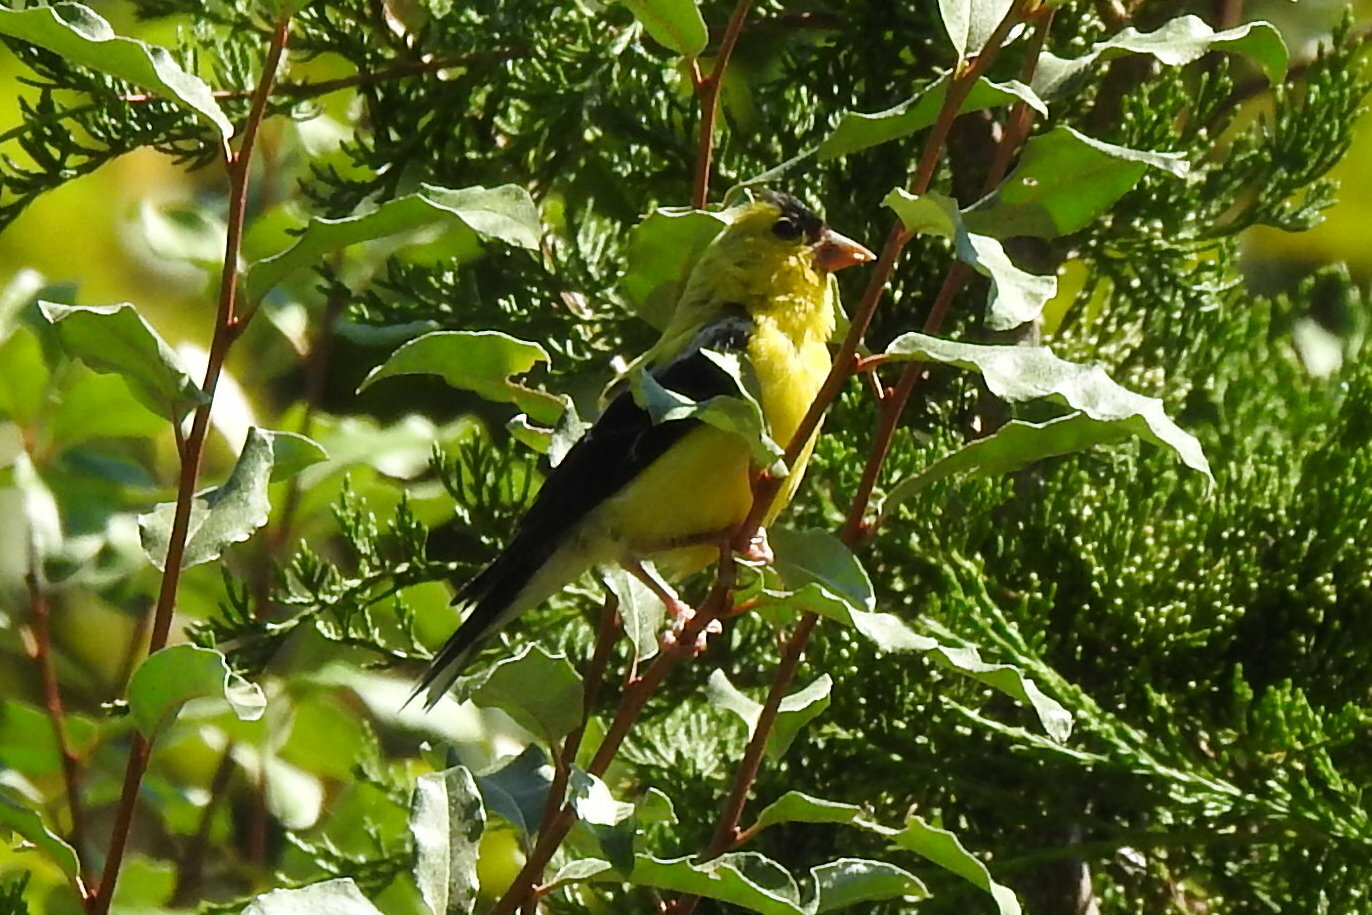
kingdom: Animalia
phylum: Chordata
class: Aves
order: Passeriformes
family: Fringillidae
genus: Spinus
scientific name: Spinus tristis
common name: American goldfinch
